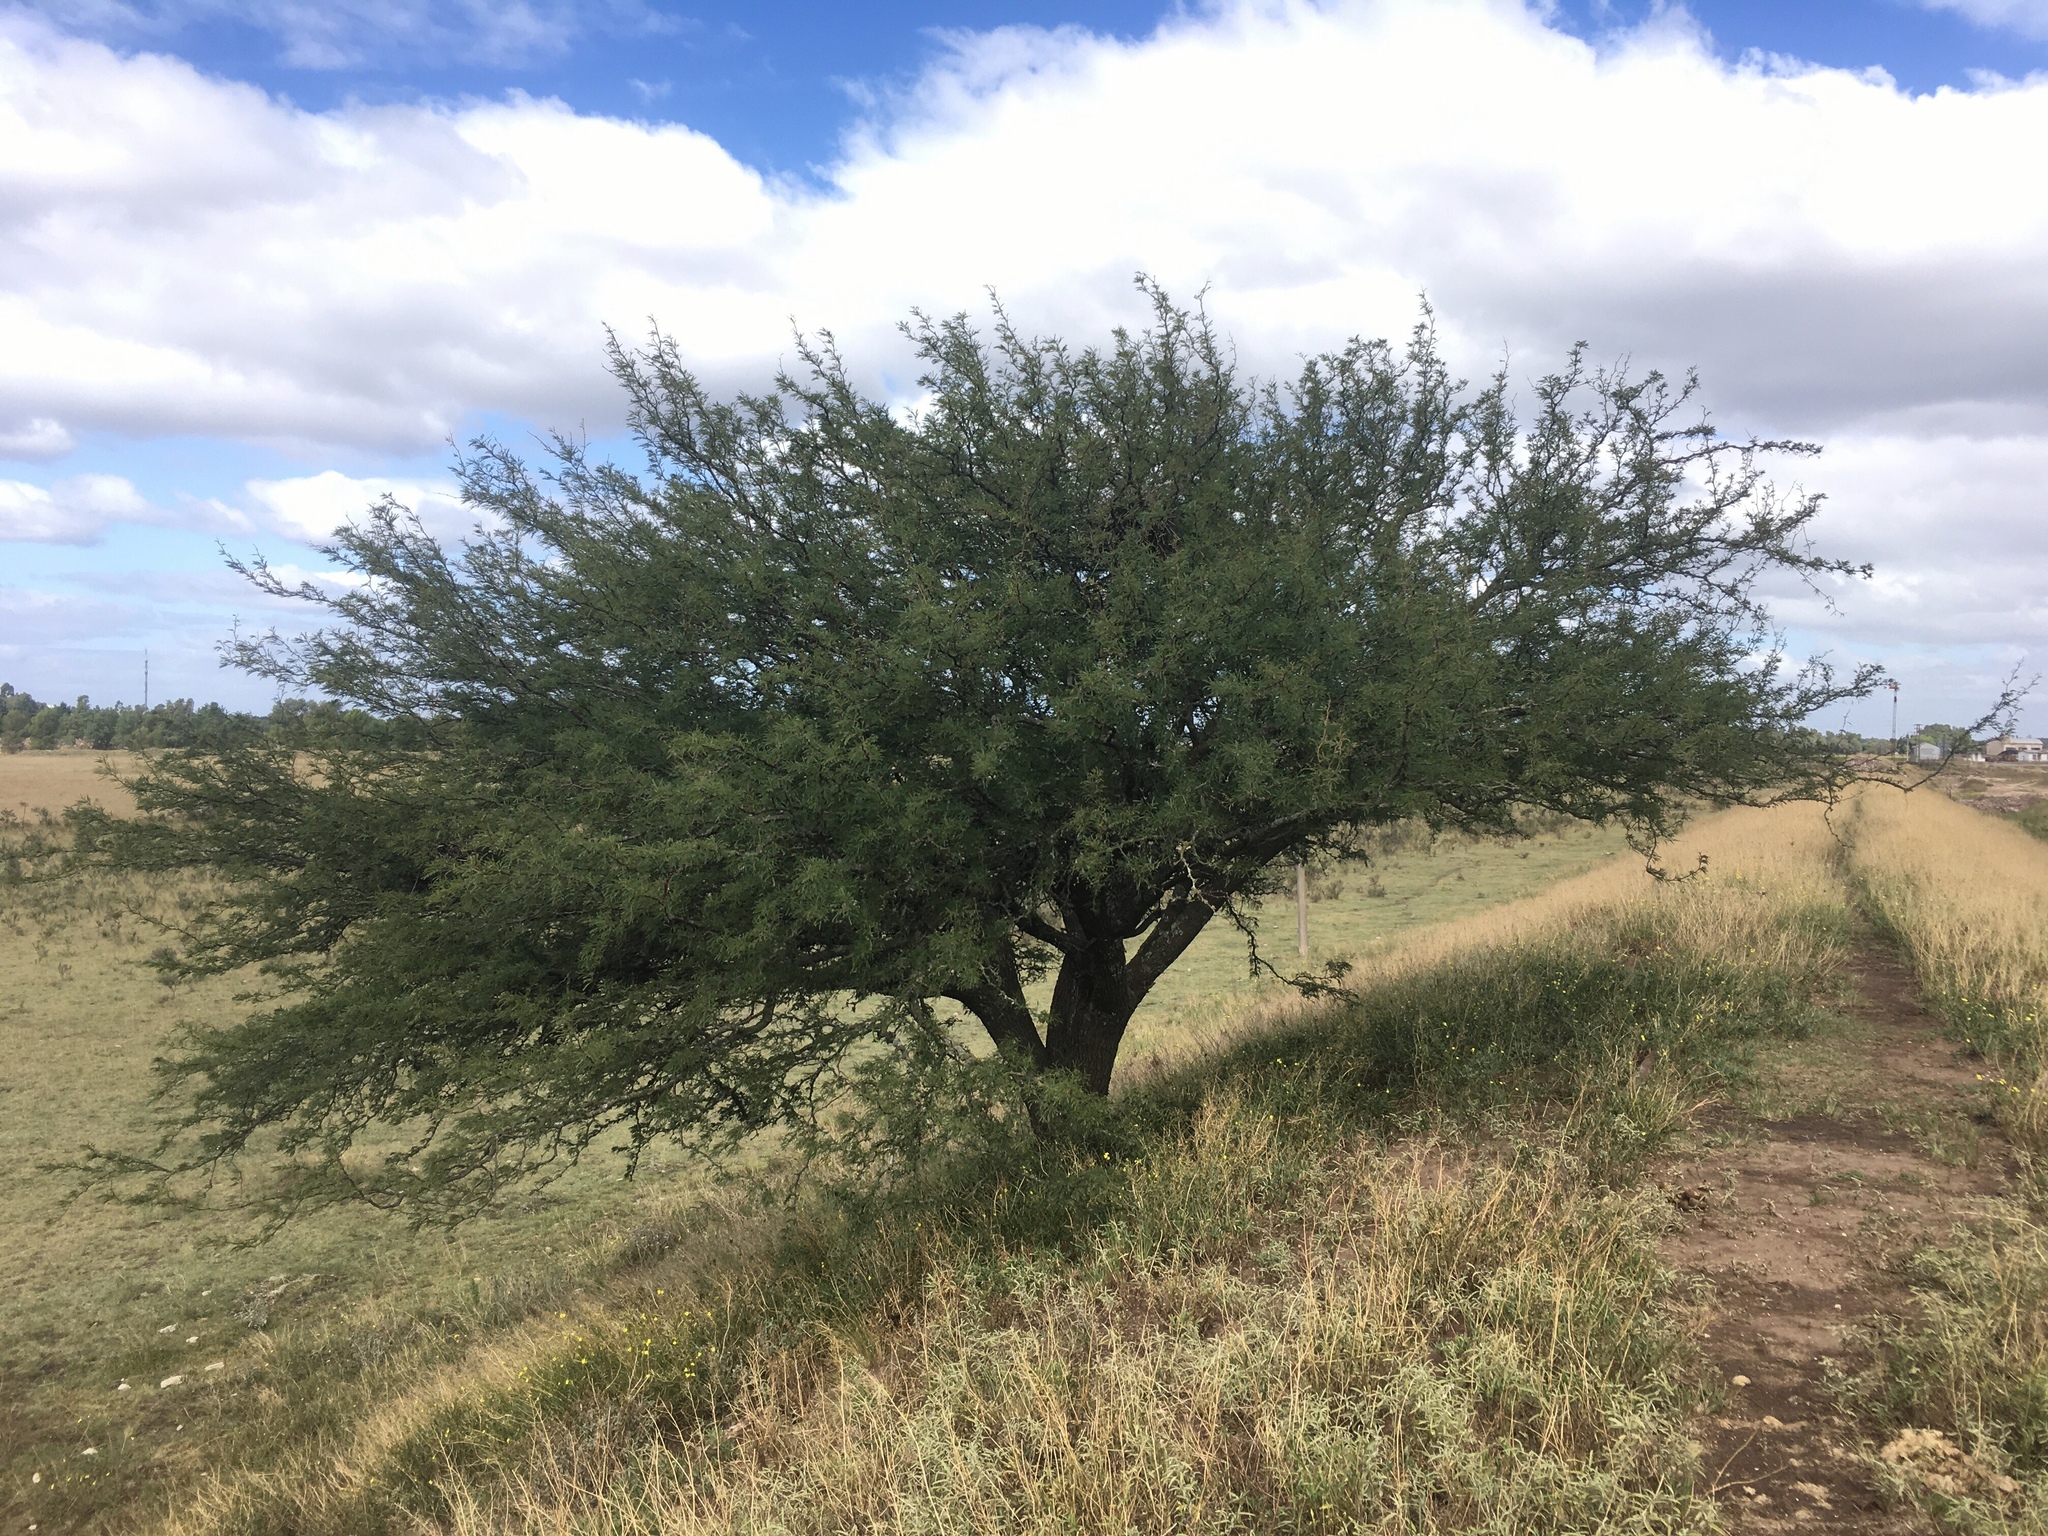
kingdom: Plantae
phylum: Tracheophyta
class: Magnoliopsida
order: Fabales
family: Fabaceae
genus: Prosopis
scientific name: Prosopis caldenia
